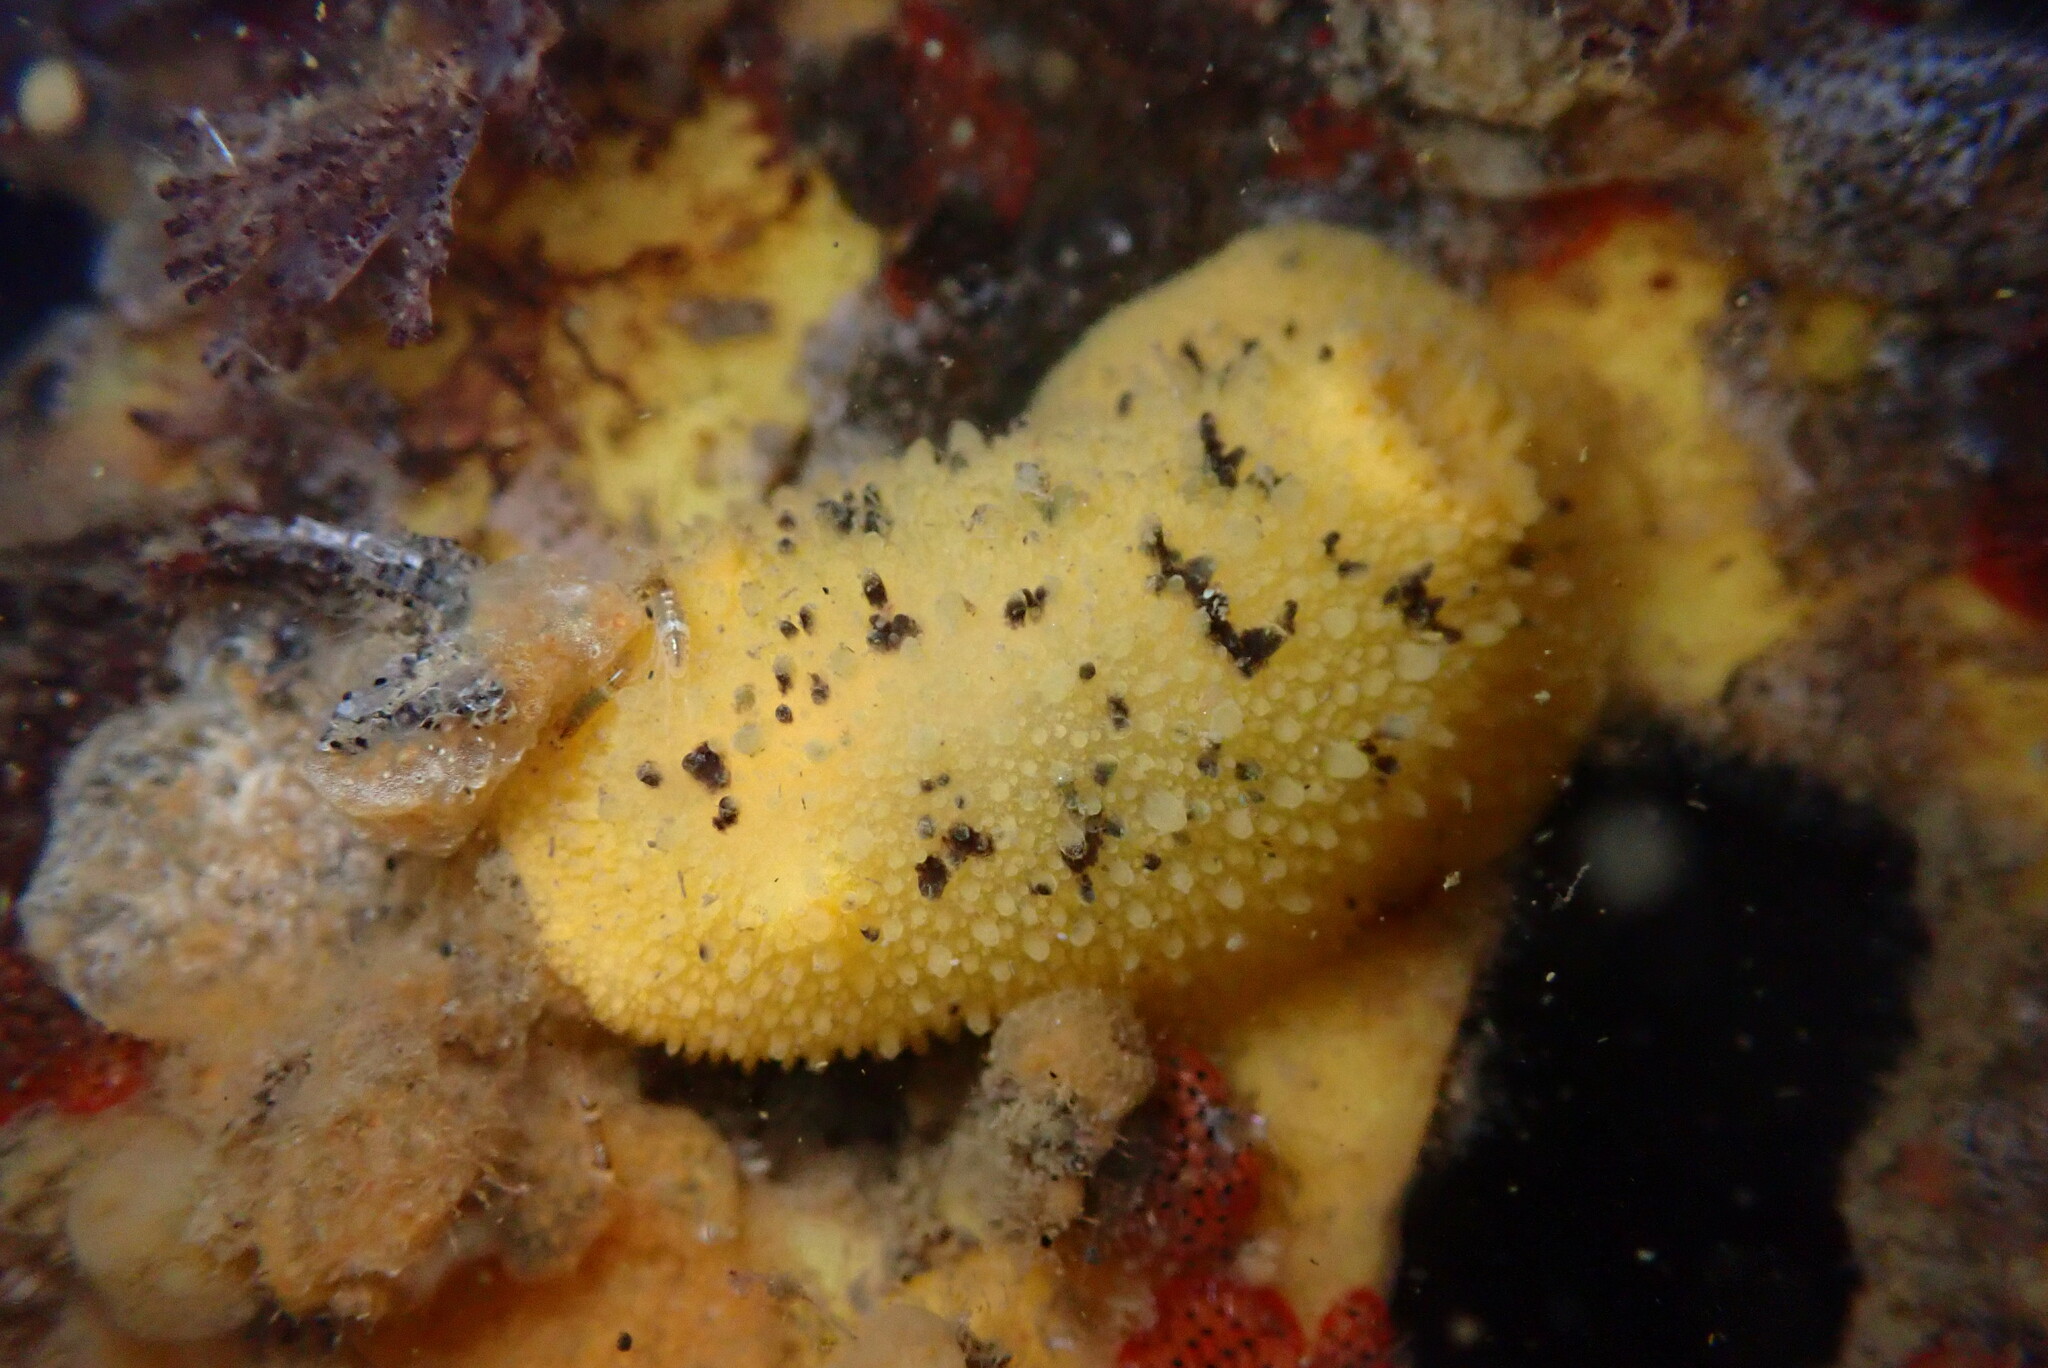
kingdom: Animalia
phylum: Mollusca
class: Gastropoda
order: Nudibranchia
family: Dorididae
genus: Doris
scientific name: Doris montereyensis
